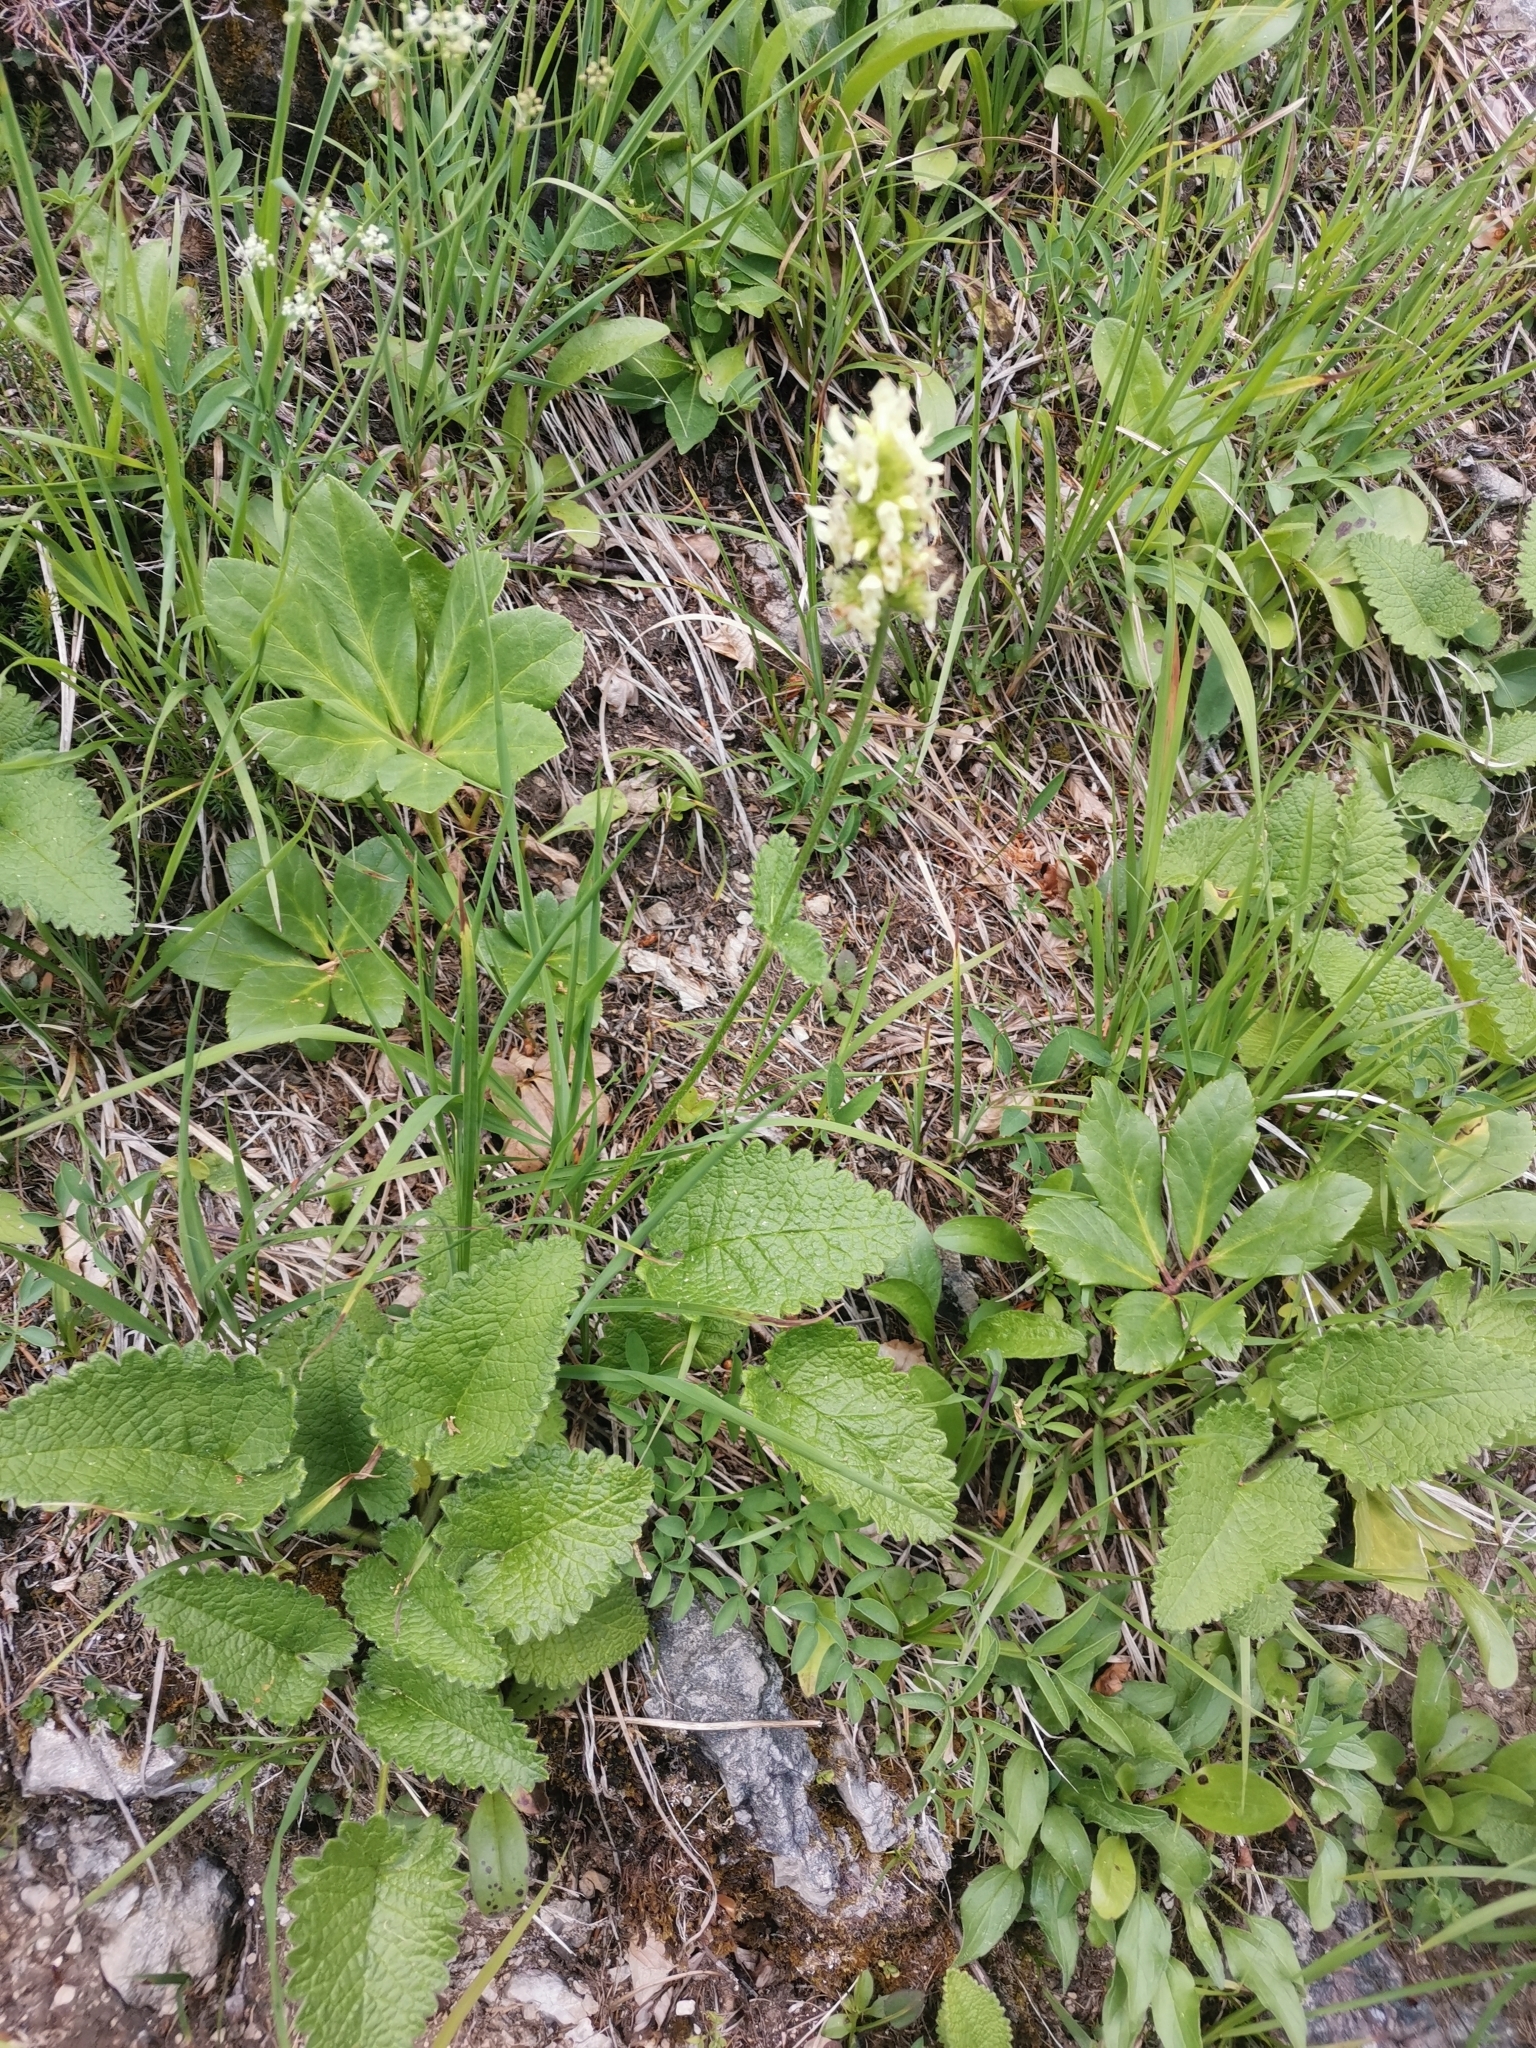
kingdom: Plantae
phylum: Tracheophyta
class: Magnoliopsida
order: Lamiales
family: Lamiaceae
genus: Betonica
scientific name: Betonica alopecuros
